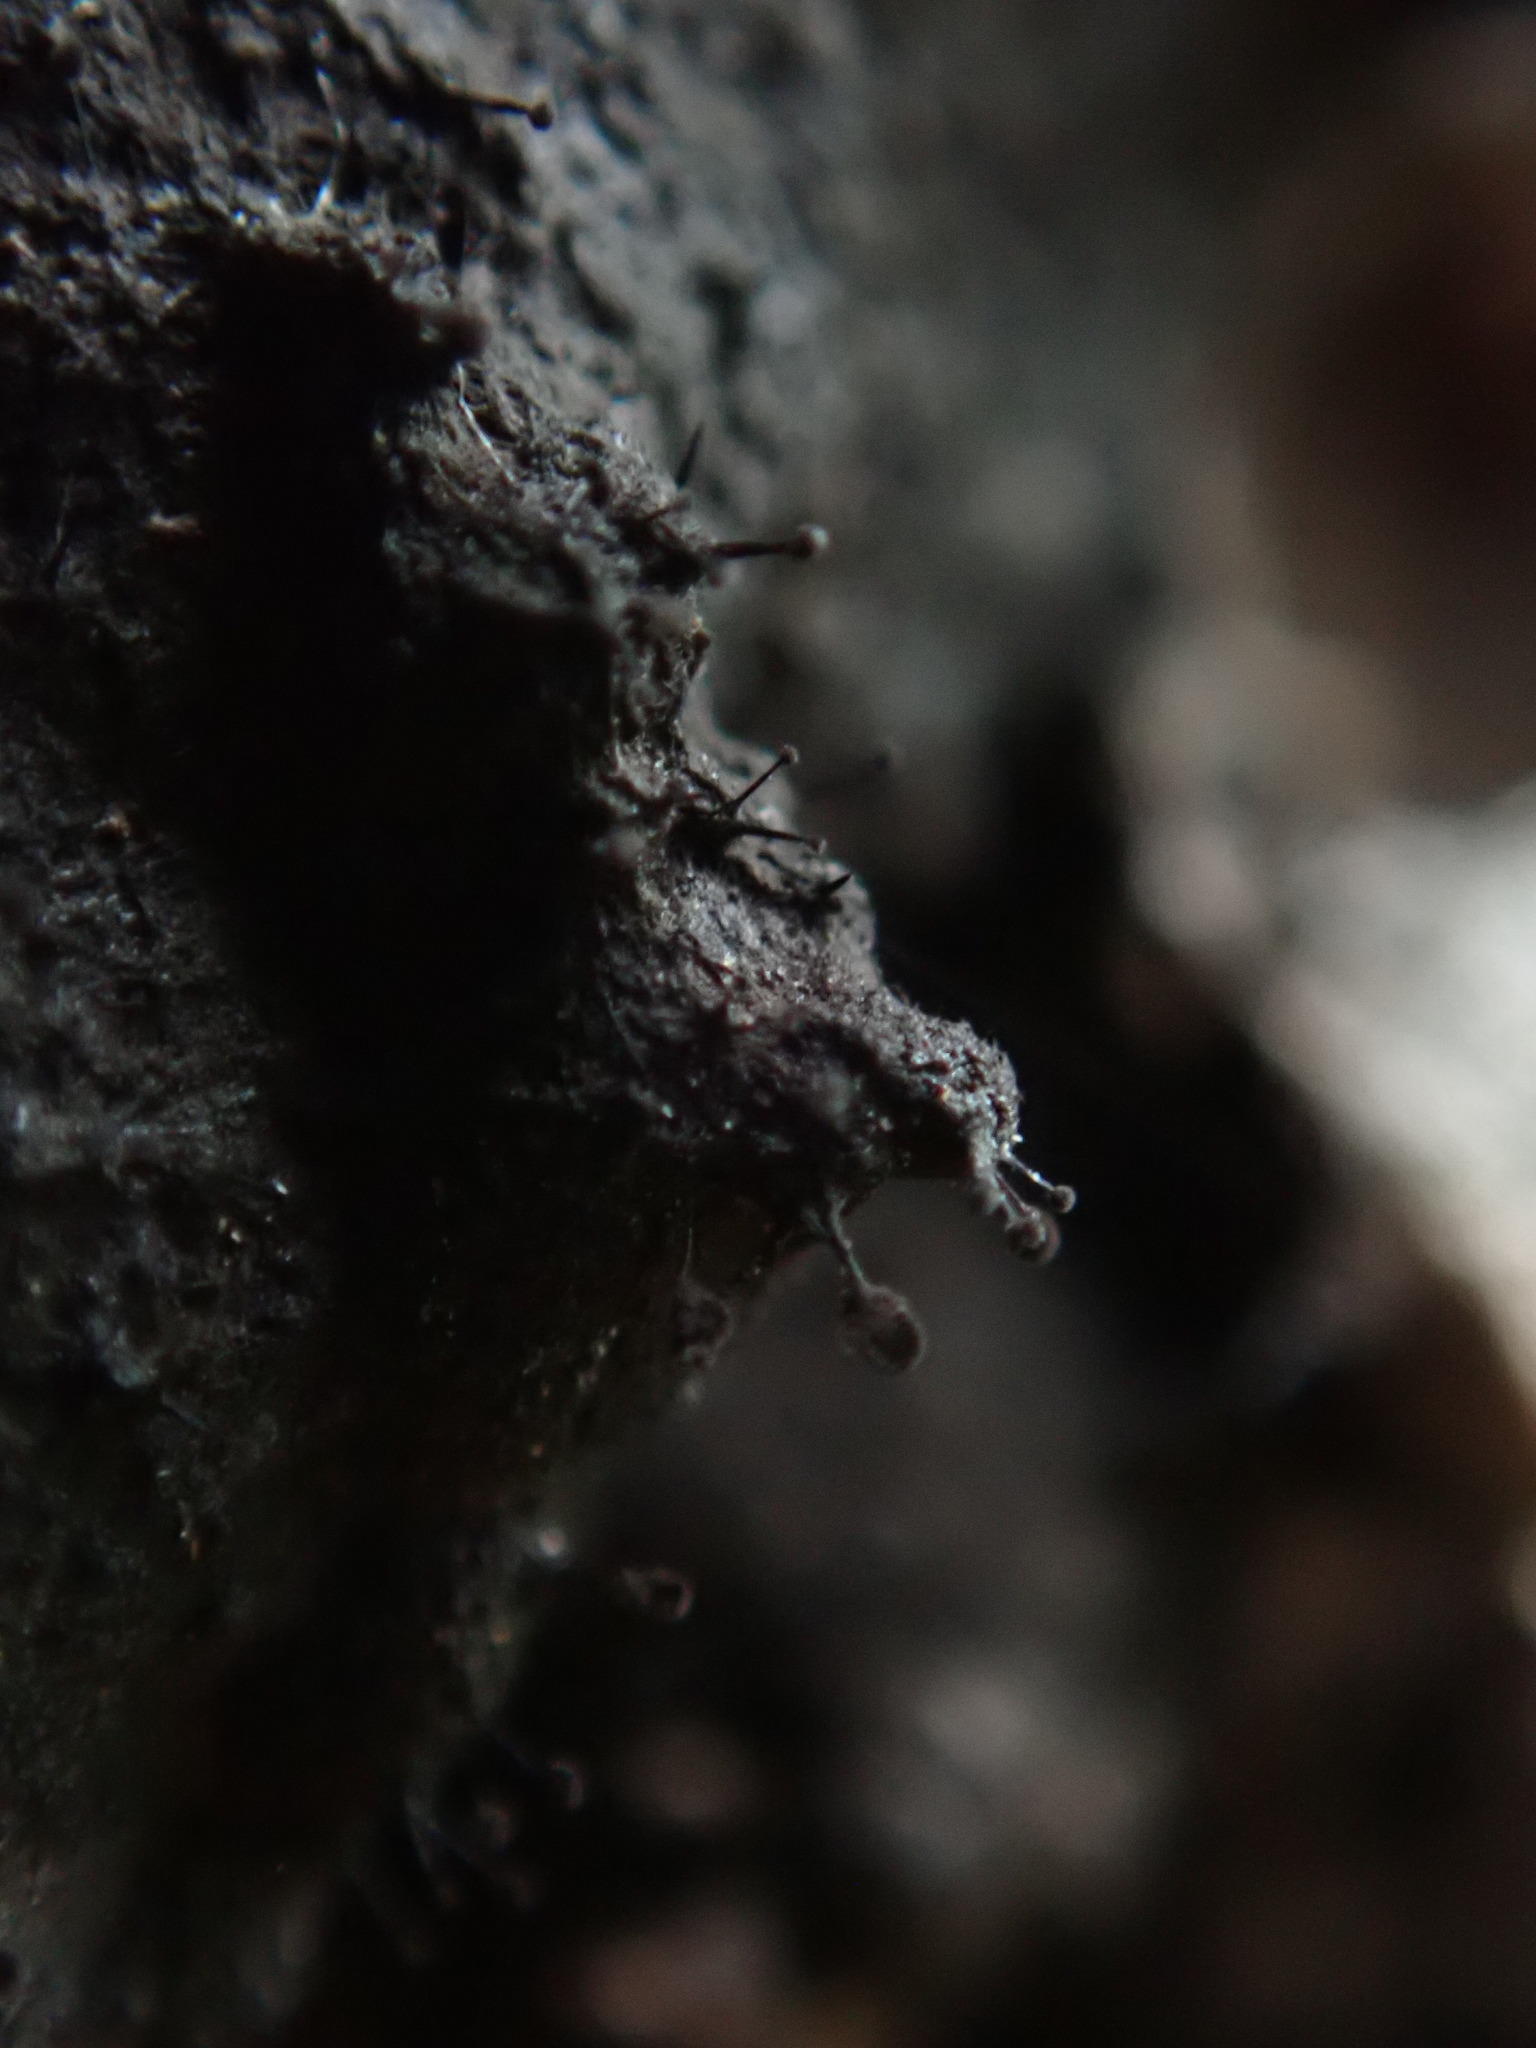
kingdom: Fungi
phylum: Ascomycota
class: Leotiomycetes
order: Helotiales
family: Amorphothecaceae
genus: Sorocybe
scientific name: Sorocybe resinae
